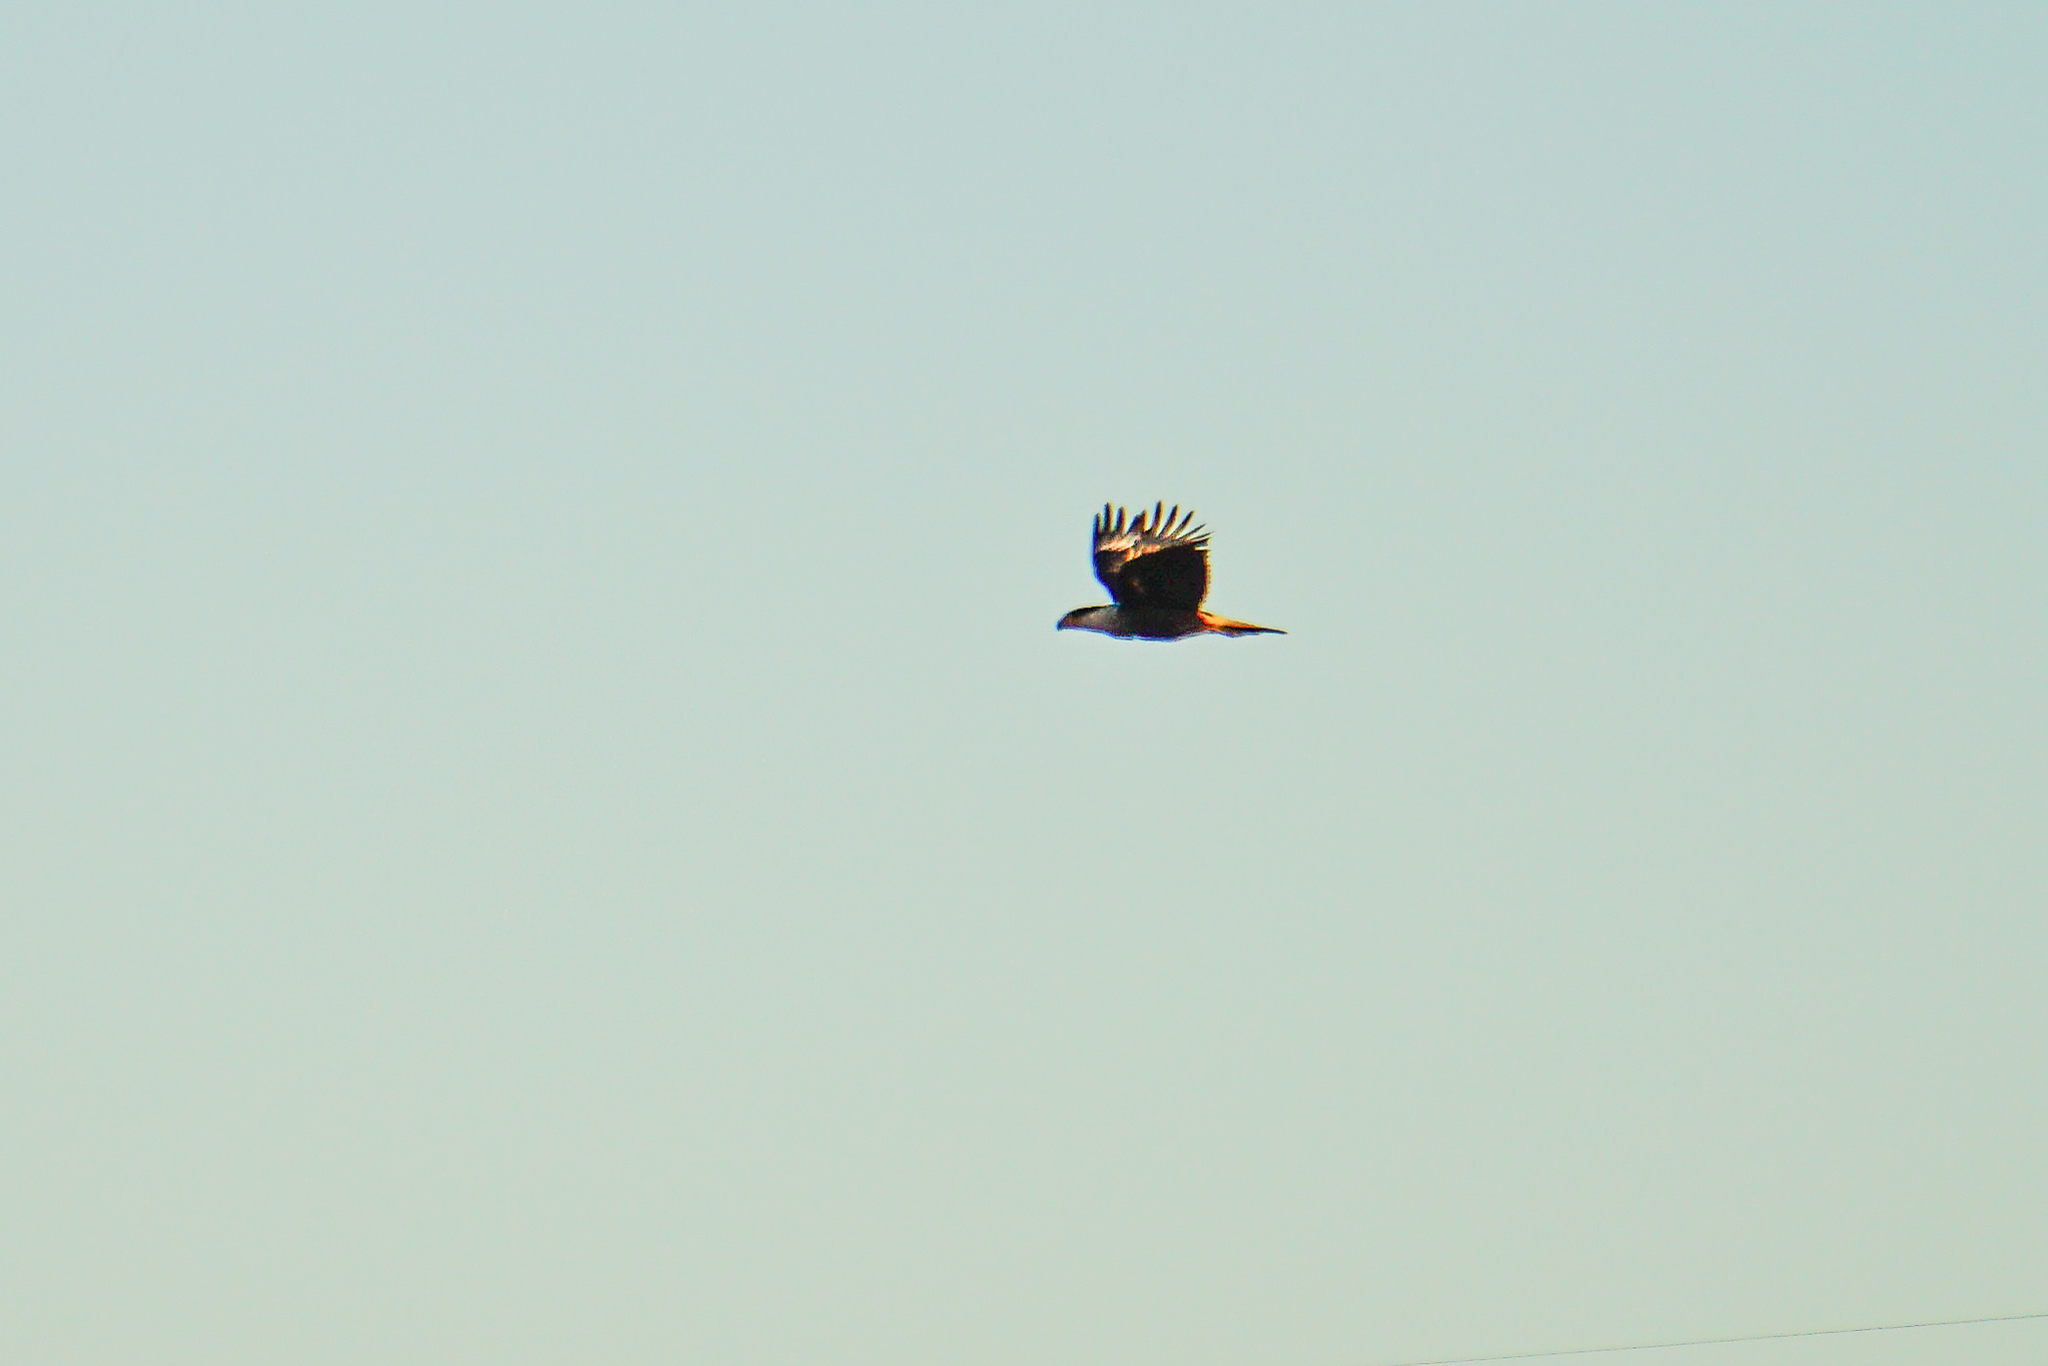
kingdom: Animalia
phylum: Chordata
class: Aves
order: Falconiformes
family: Falconidae
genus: Caracara
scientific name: Caracara plancus
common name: Southern caracara
